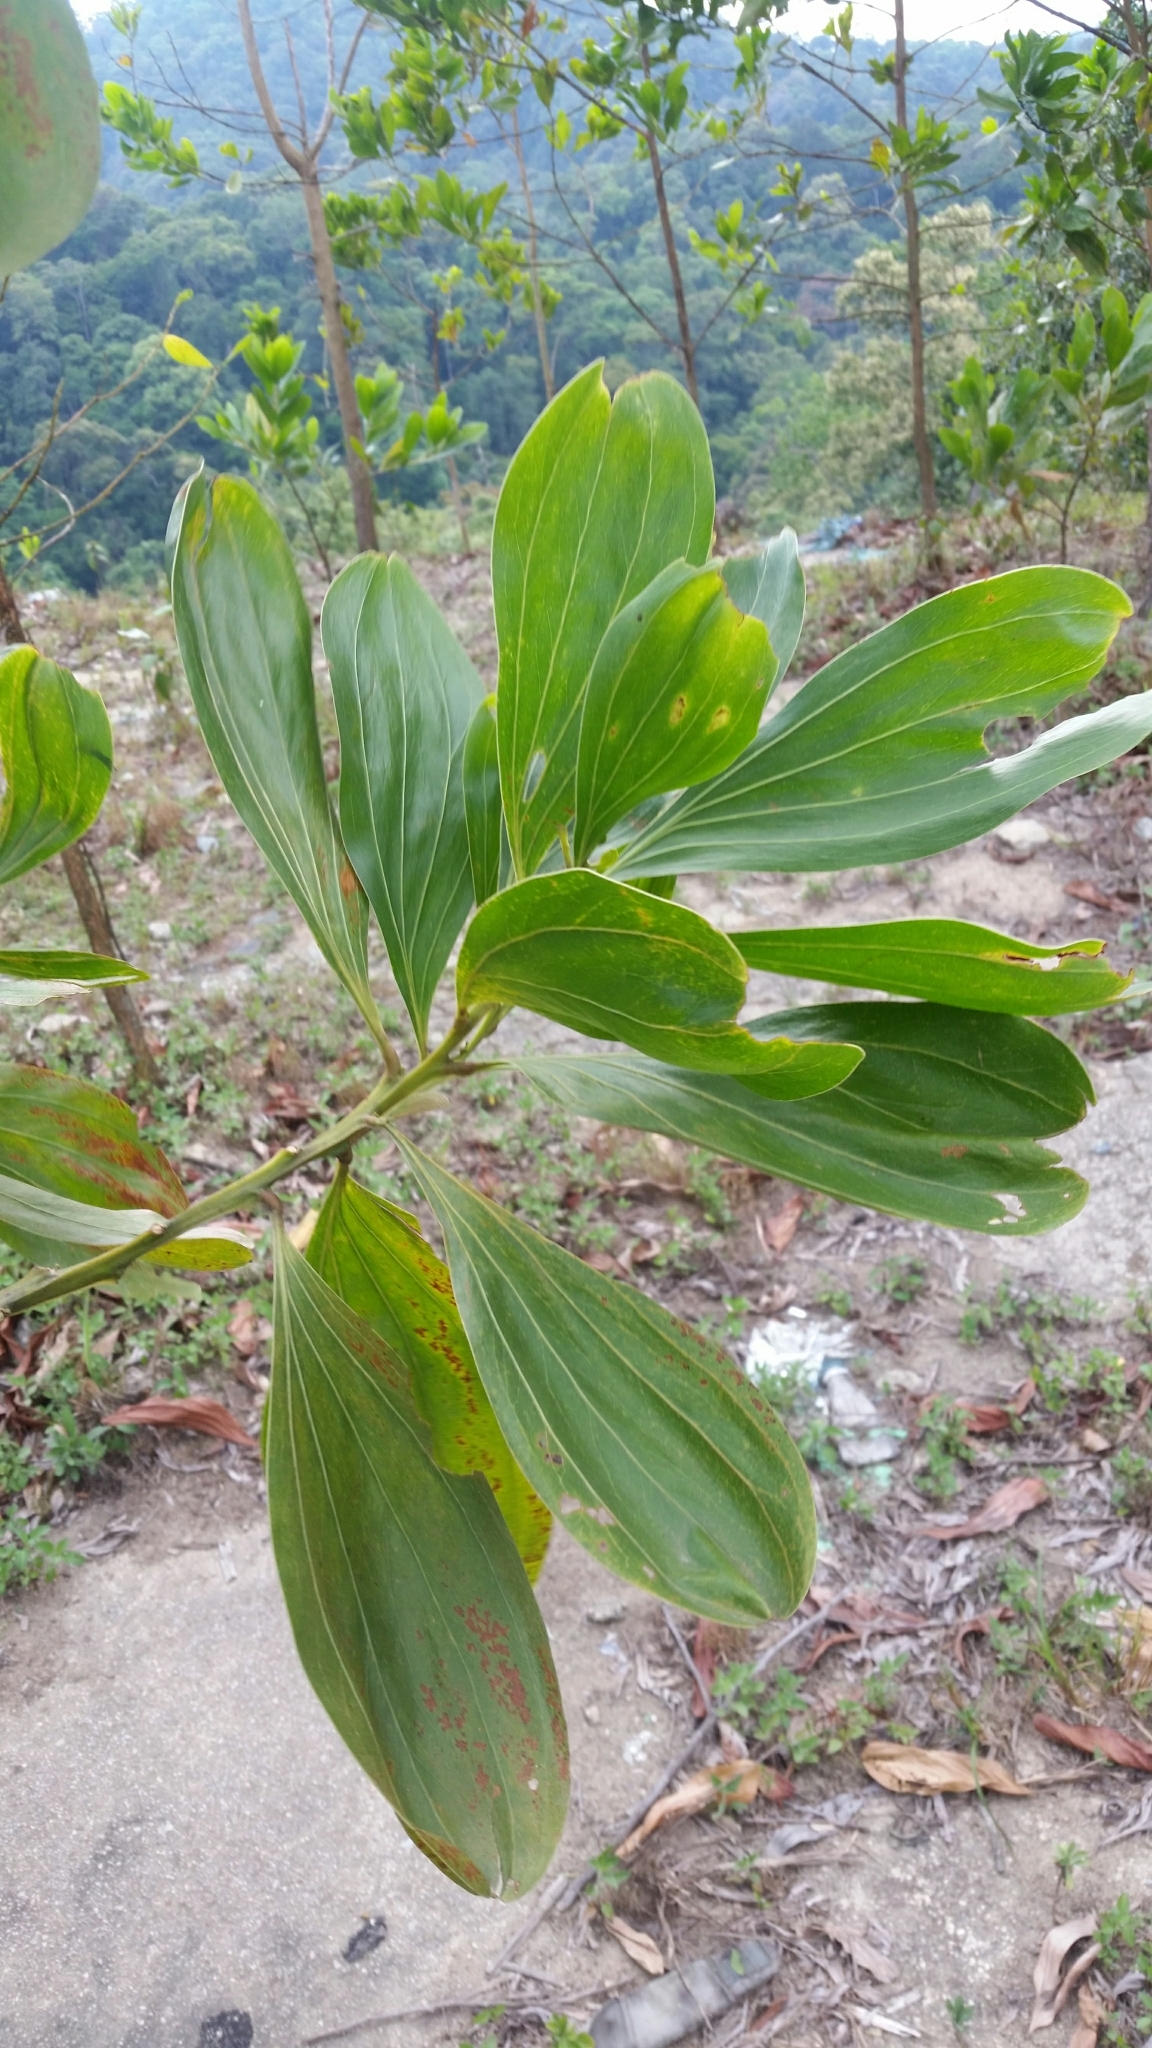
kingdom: Plantae
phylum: Tracheophyta
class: Magnoliopsida
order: Fabales
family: Fabaceae
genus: Acacia
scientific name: Acacia mangium
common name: Black wattle
